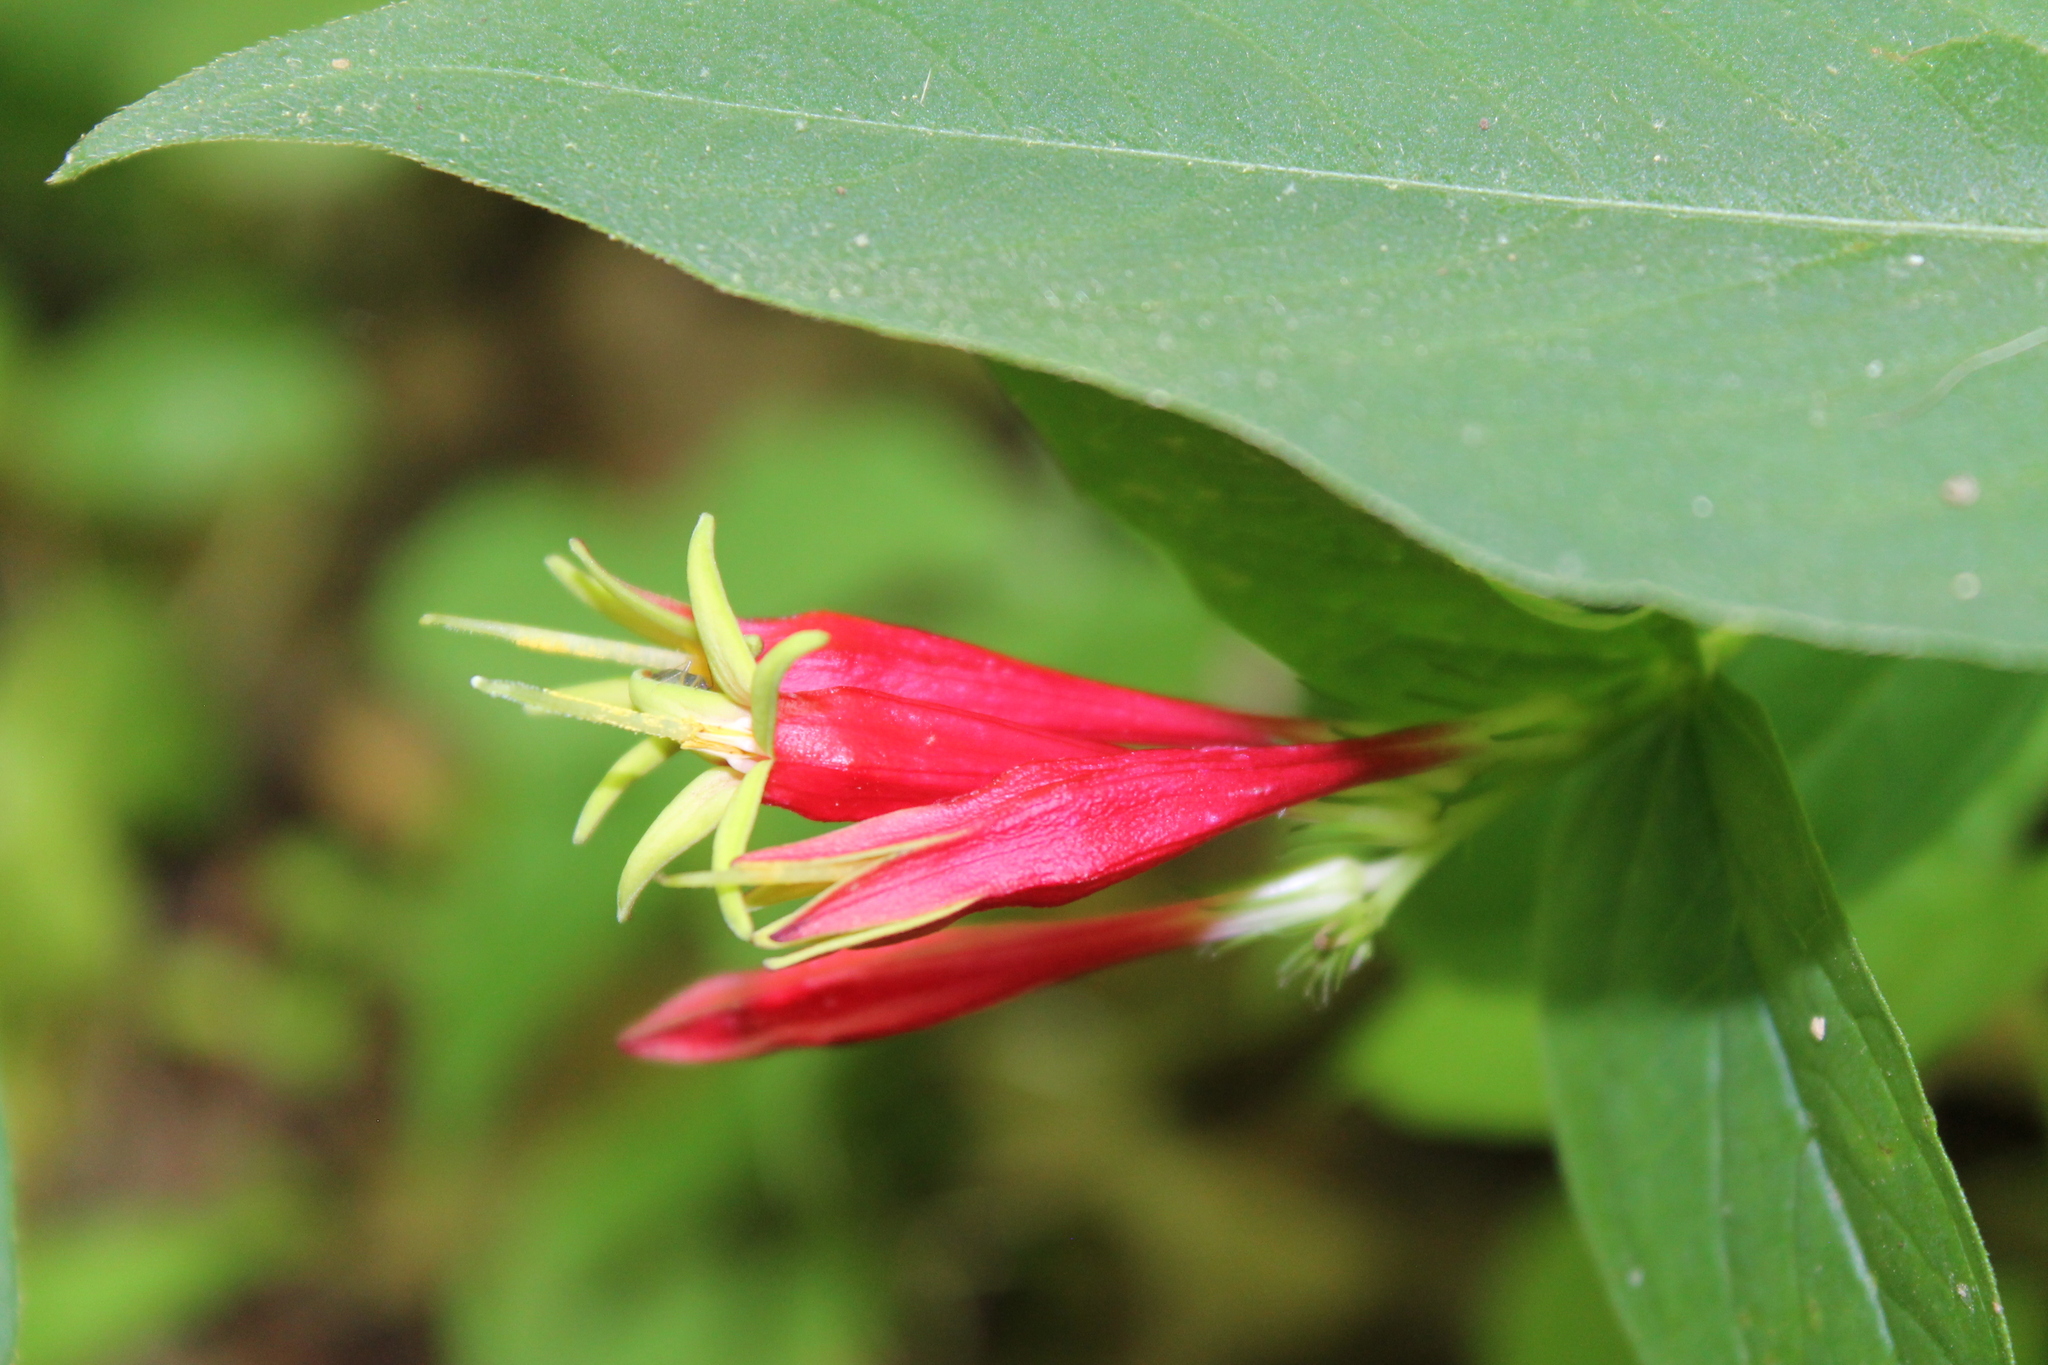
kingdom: Plantae
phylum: Tracheophyta
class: Magnoliopsida
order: Gentianales
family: Loganiaceae
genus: Spigelia
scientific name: Spigelia marilandica
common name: Indian-pink
